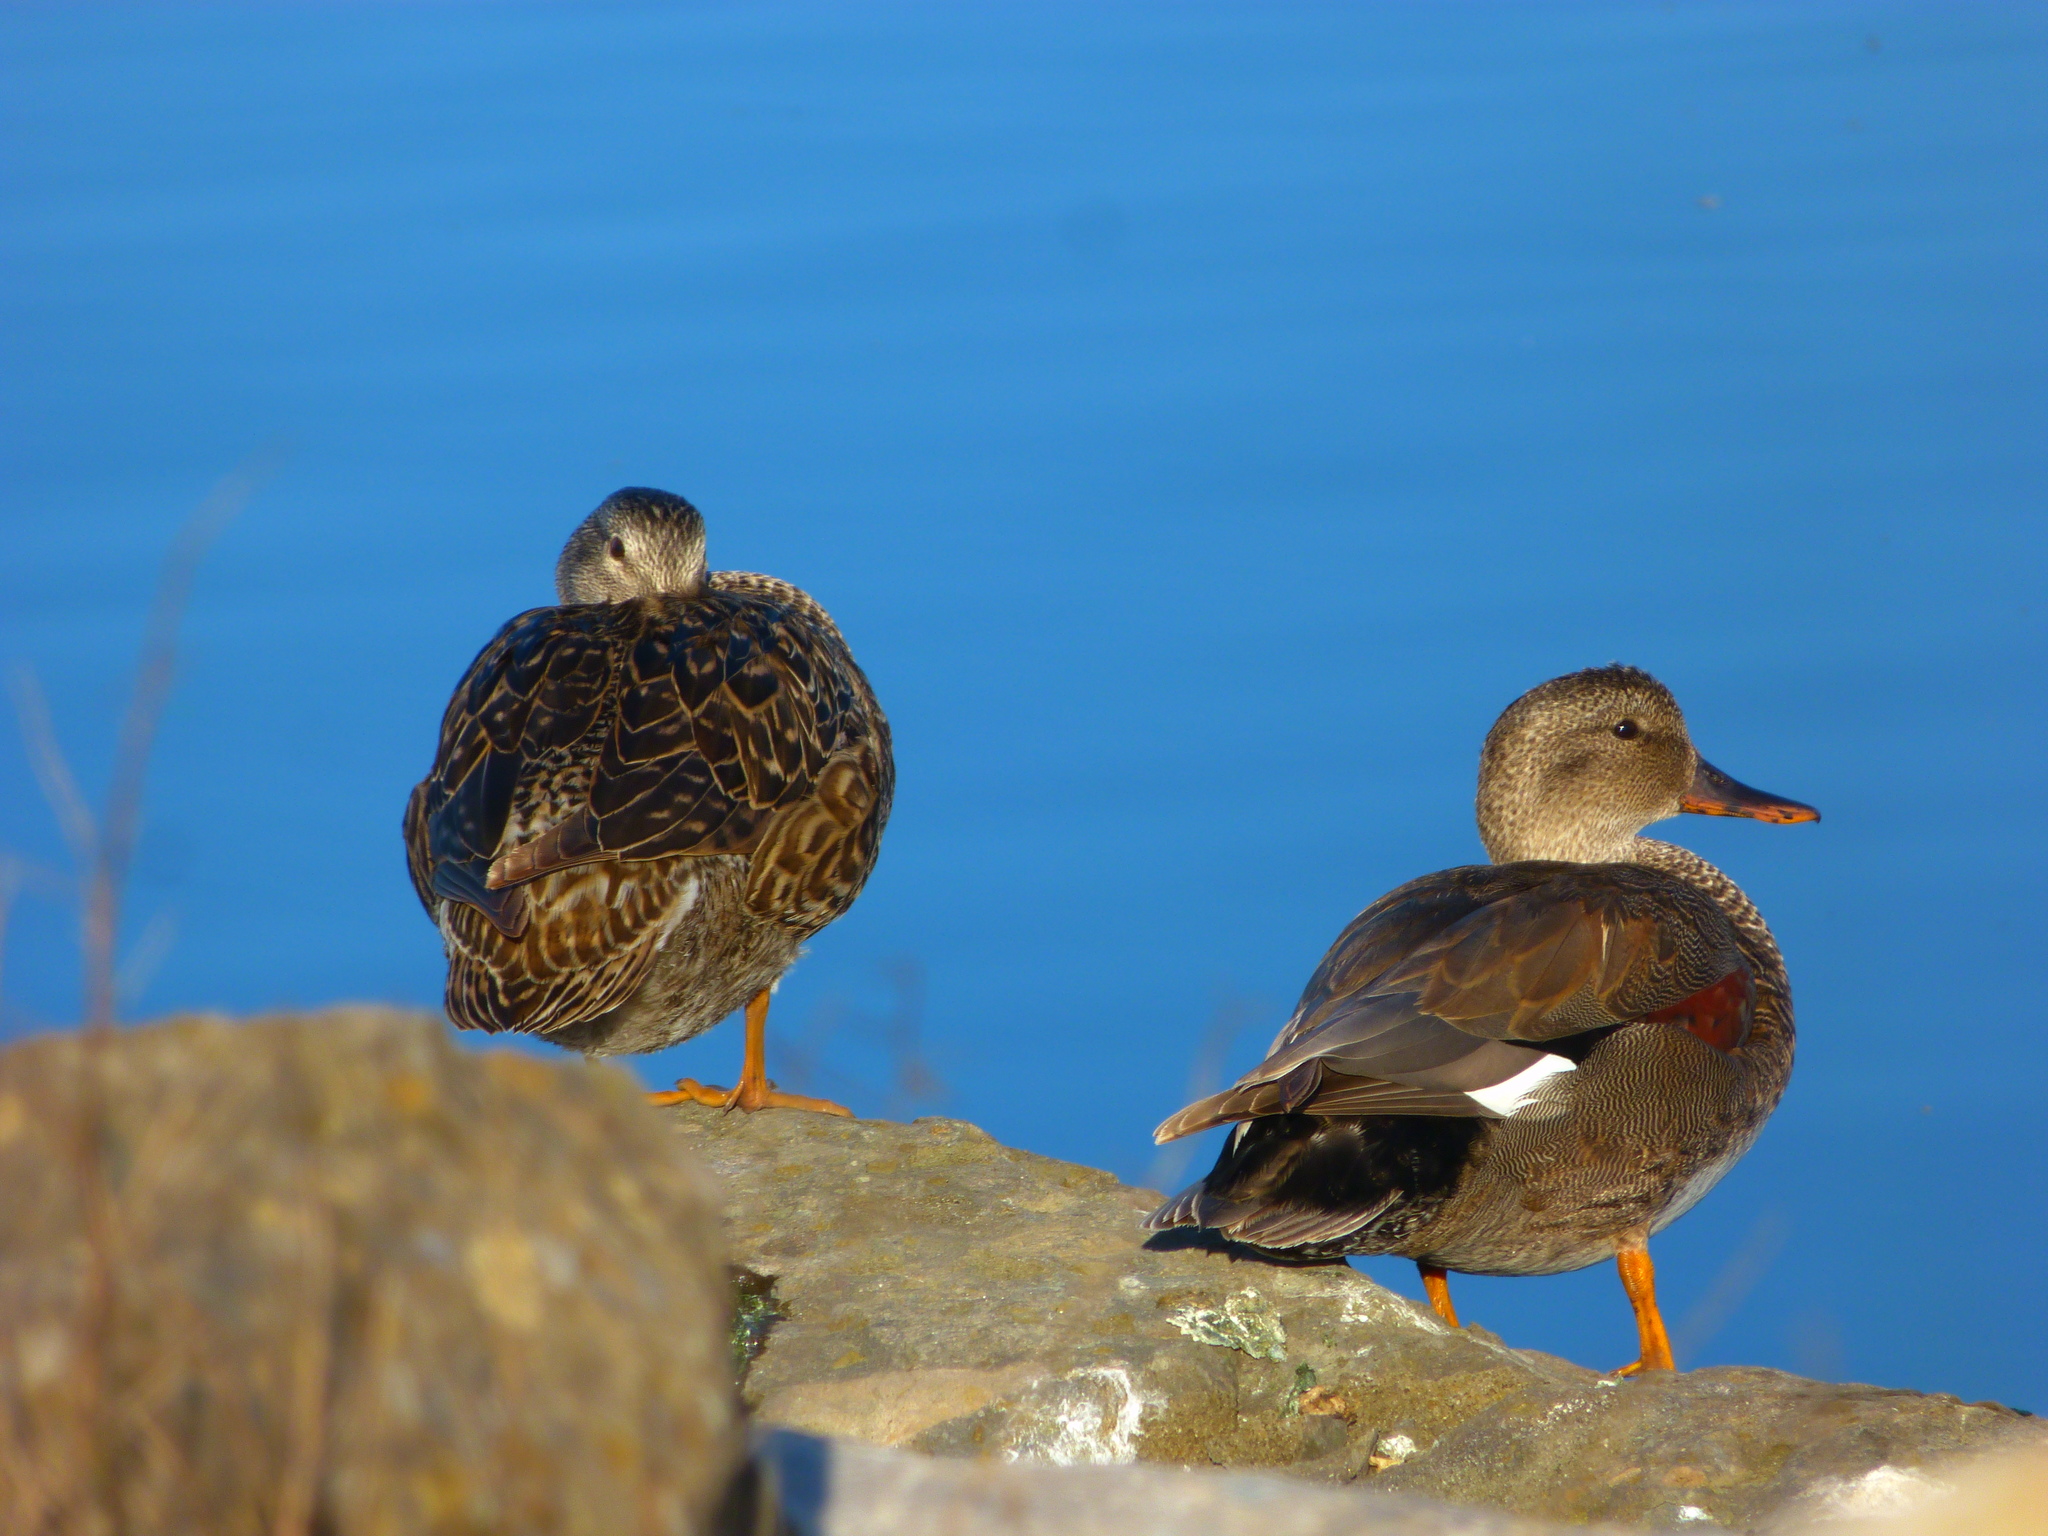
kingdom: Animalia
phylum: Chordata
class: Aves
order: Anseriformes
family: Anatidae
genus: Mareca
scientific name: Mareca strepera
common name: Gadwall
